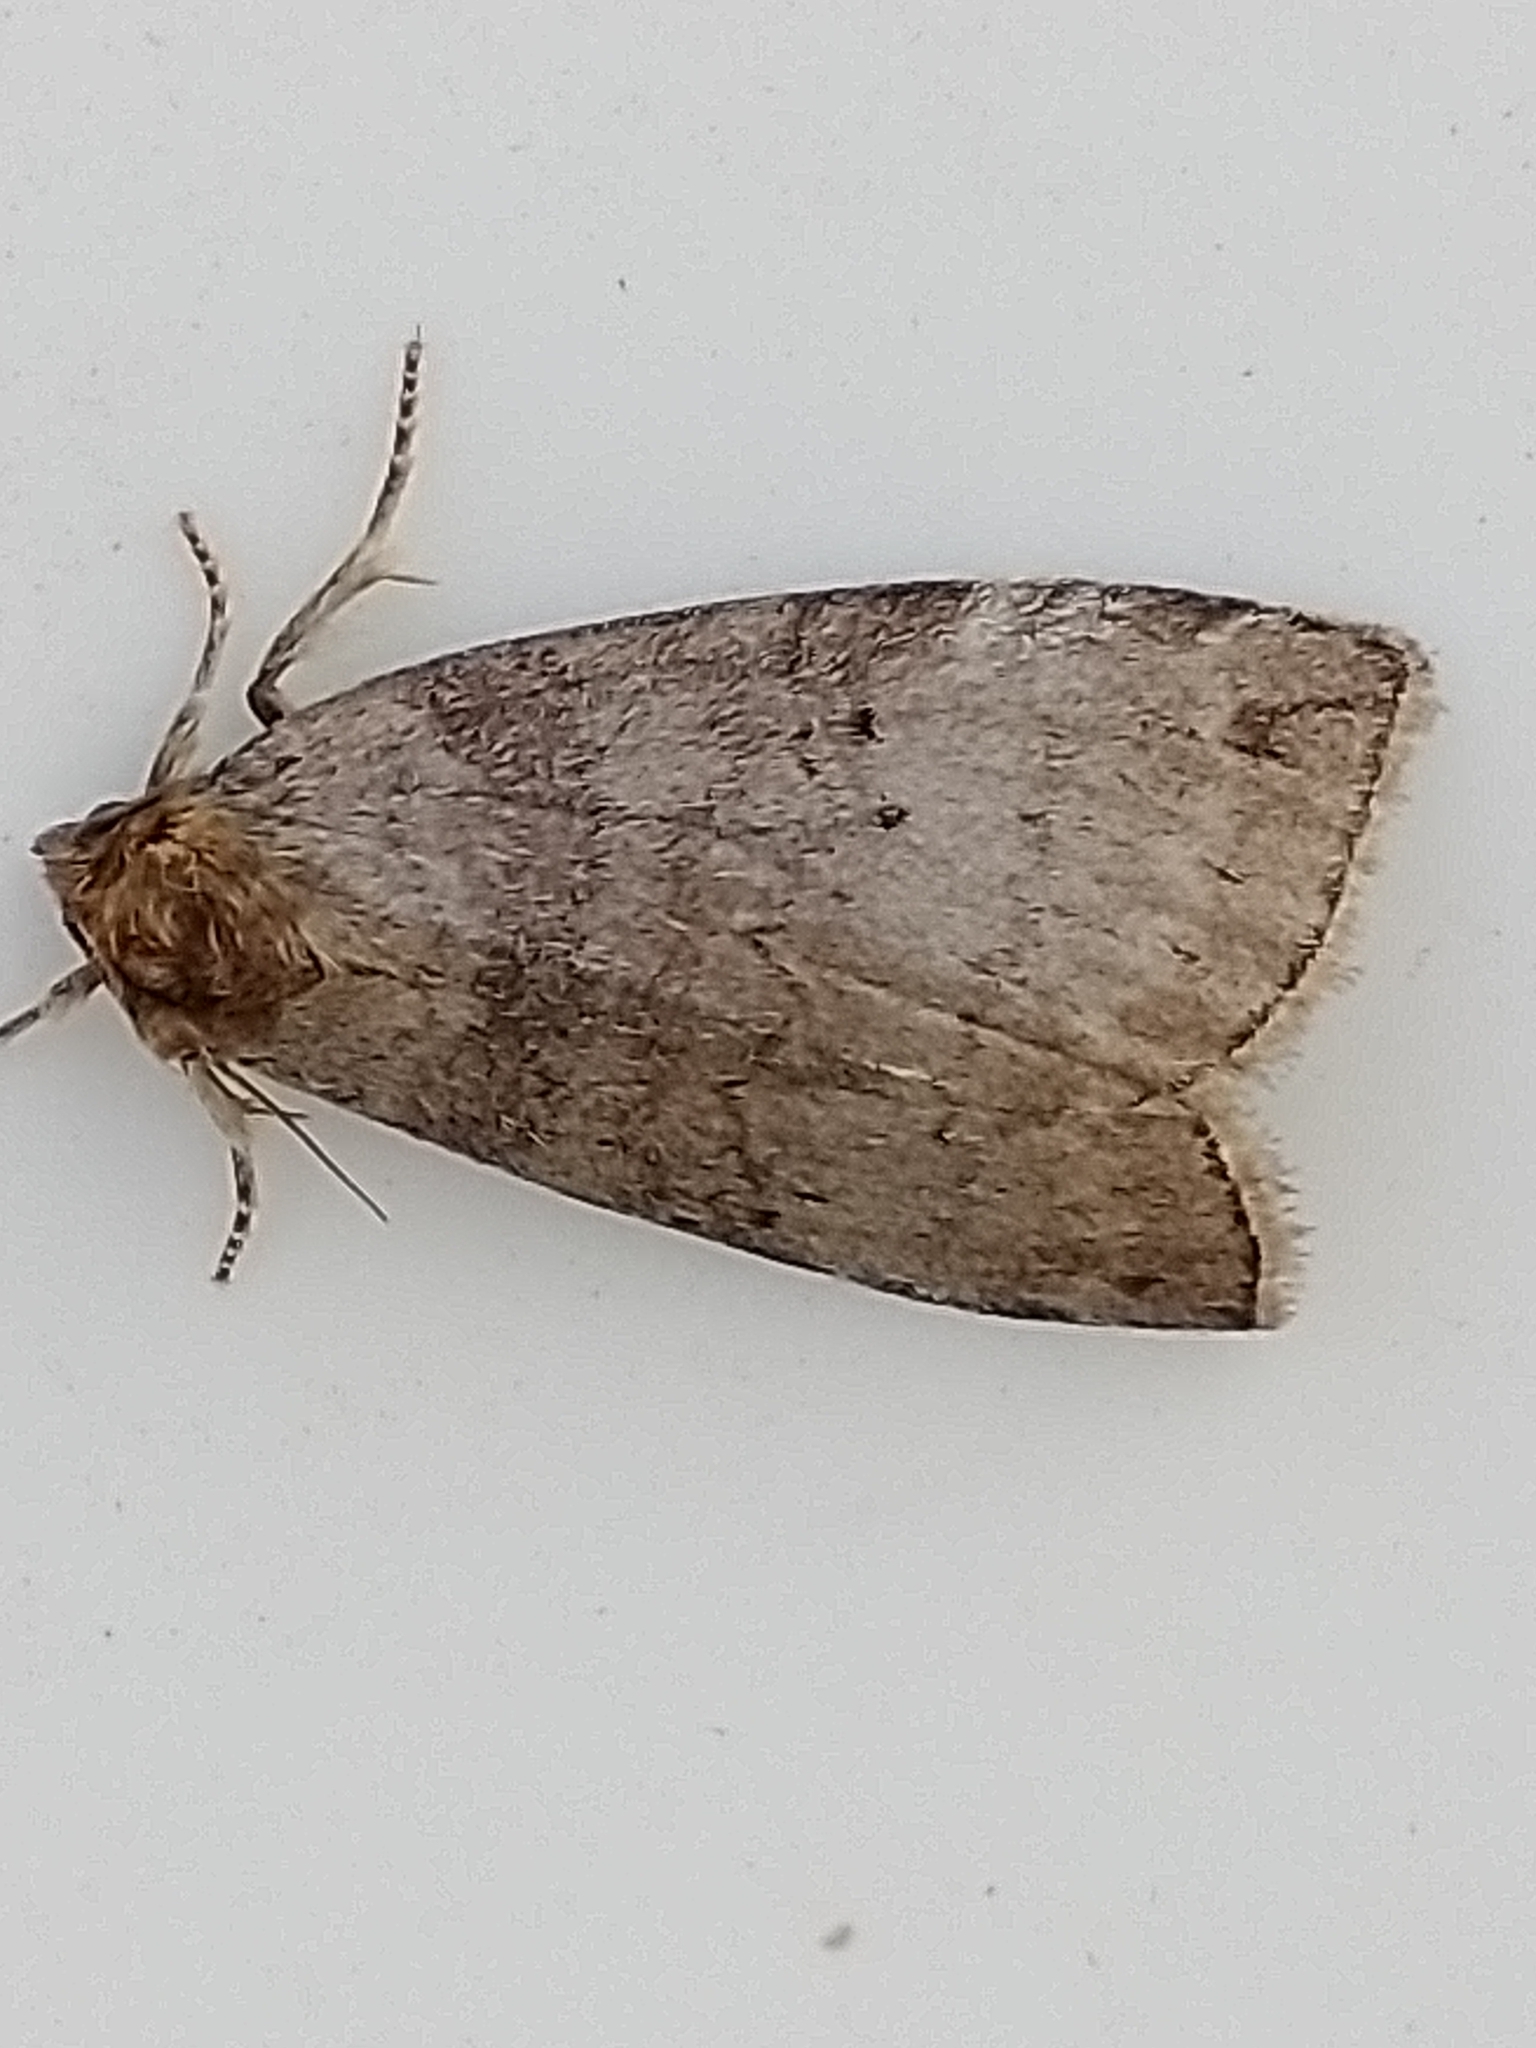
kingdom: Animalia
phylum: Arthropoda
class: Insecta
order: Lepidoptera
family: Drepanidae
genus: Ochropacha
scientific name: Ochropacha duplaris
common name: Common lutestring
